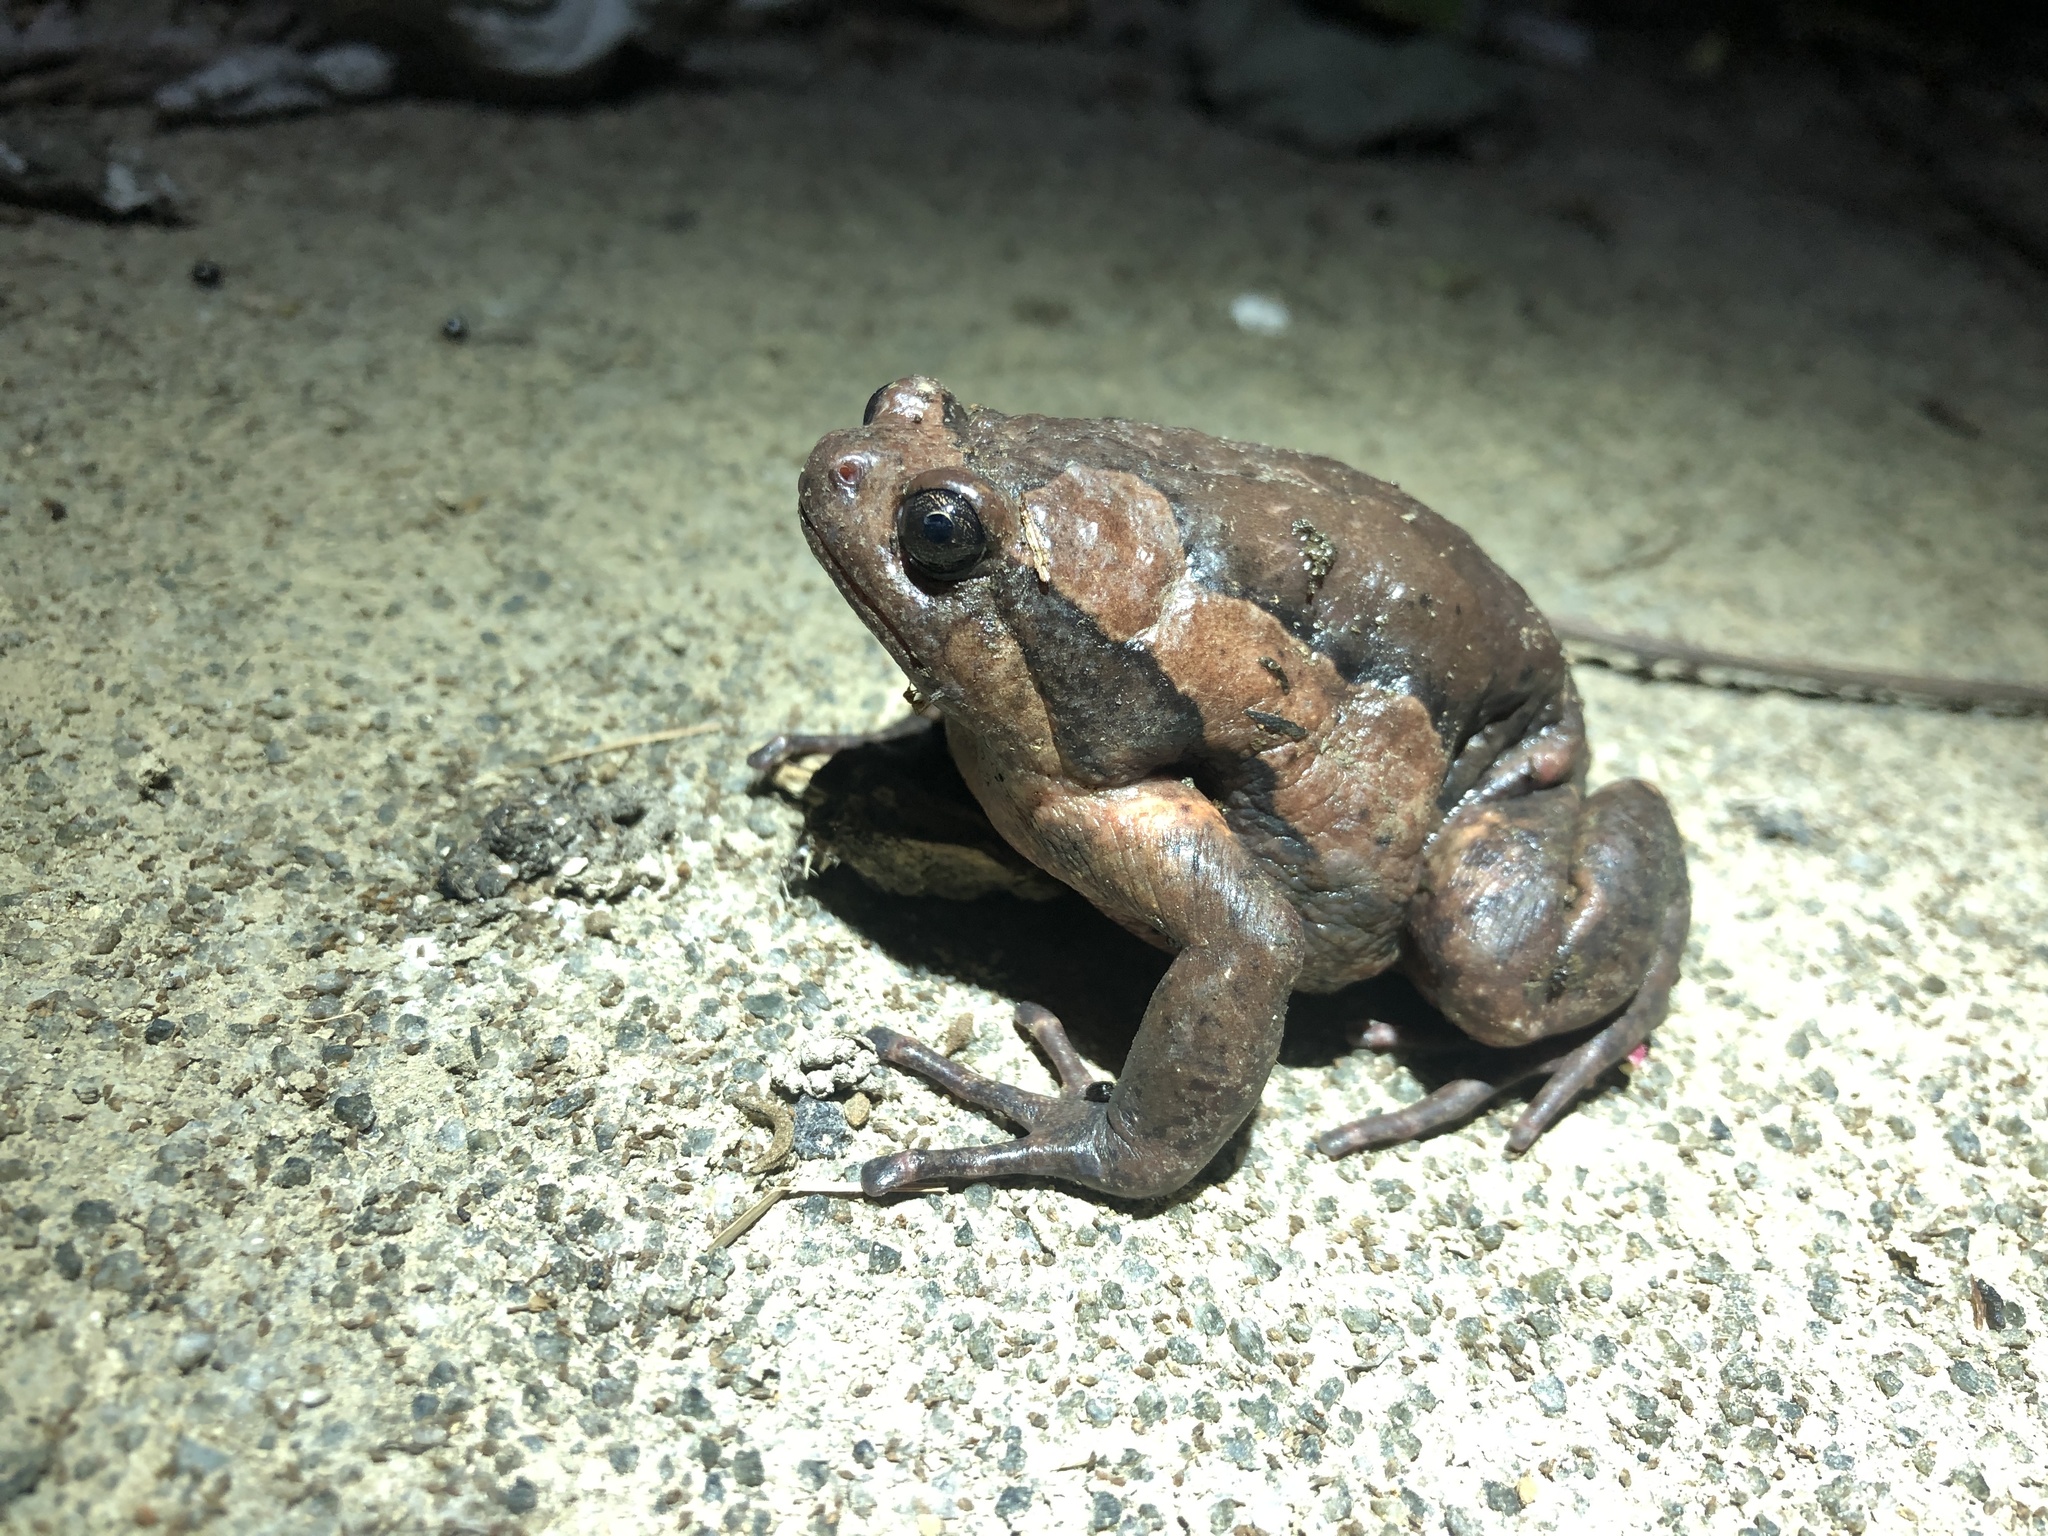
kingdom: Animalia
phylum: Chordata
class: Amphibia
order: Anura
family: Microhylidae
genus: Kaloula
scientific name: Kaloula pulchra
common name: Common,banded bullfrog
